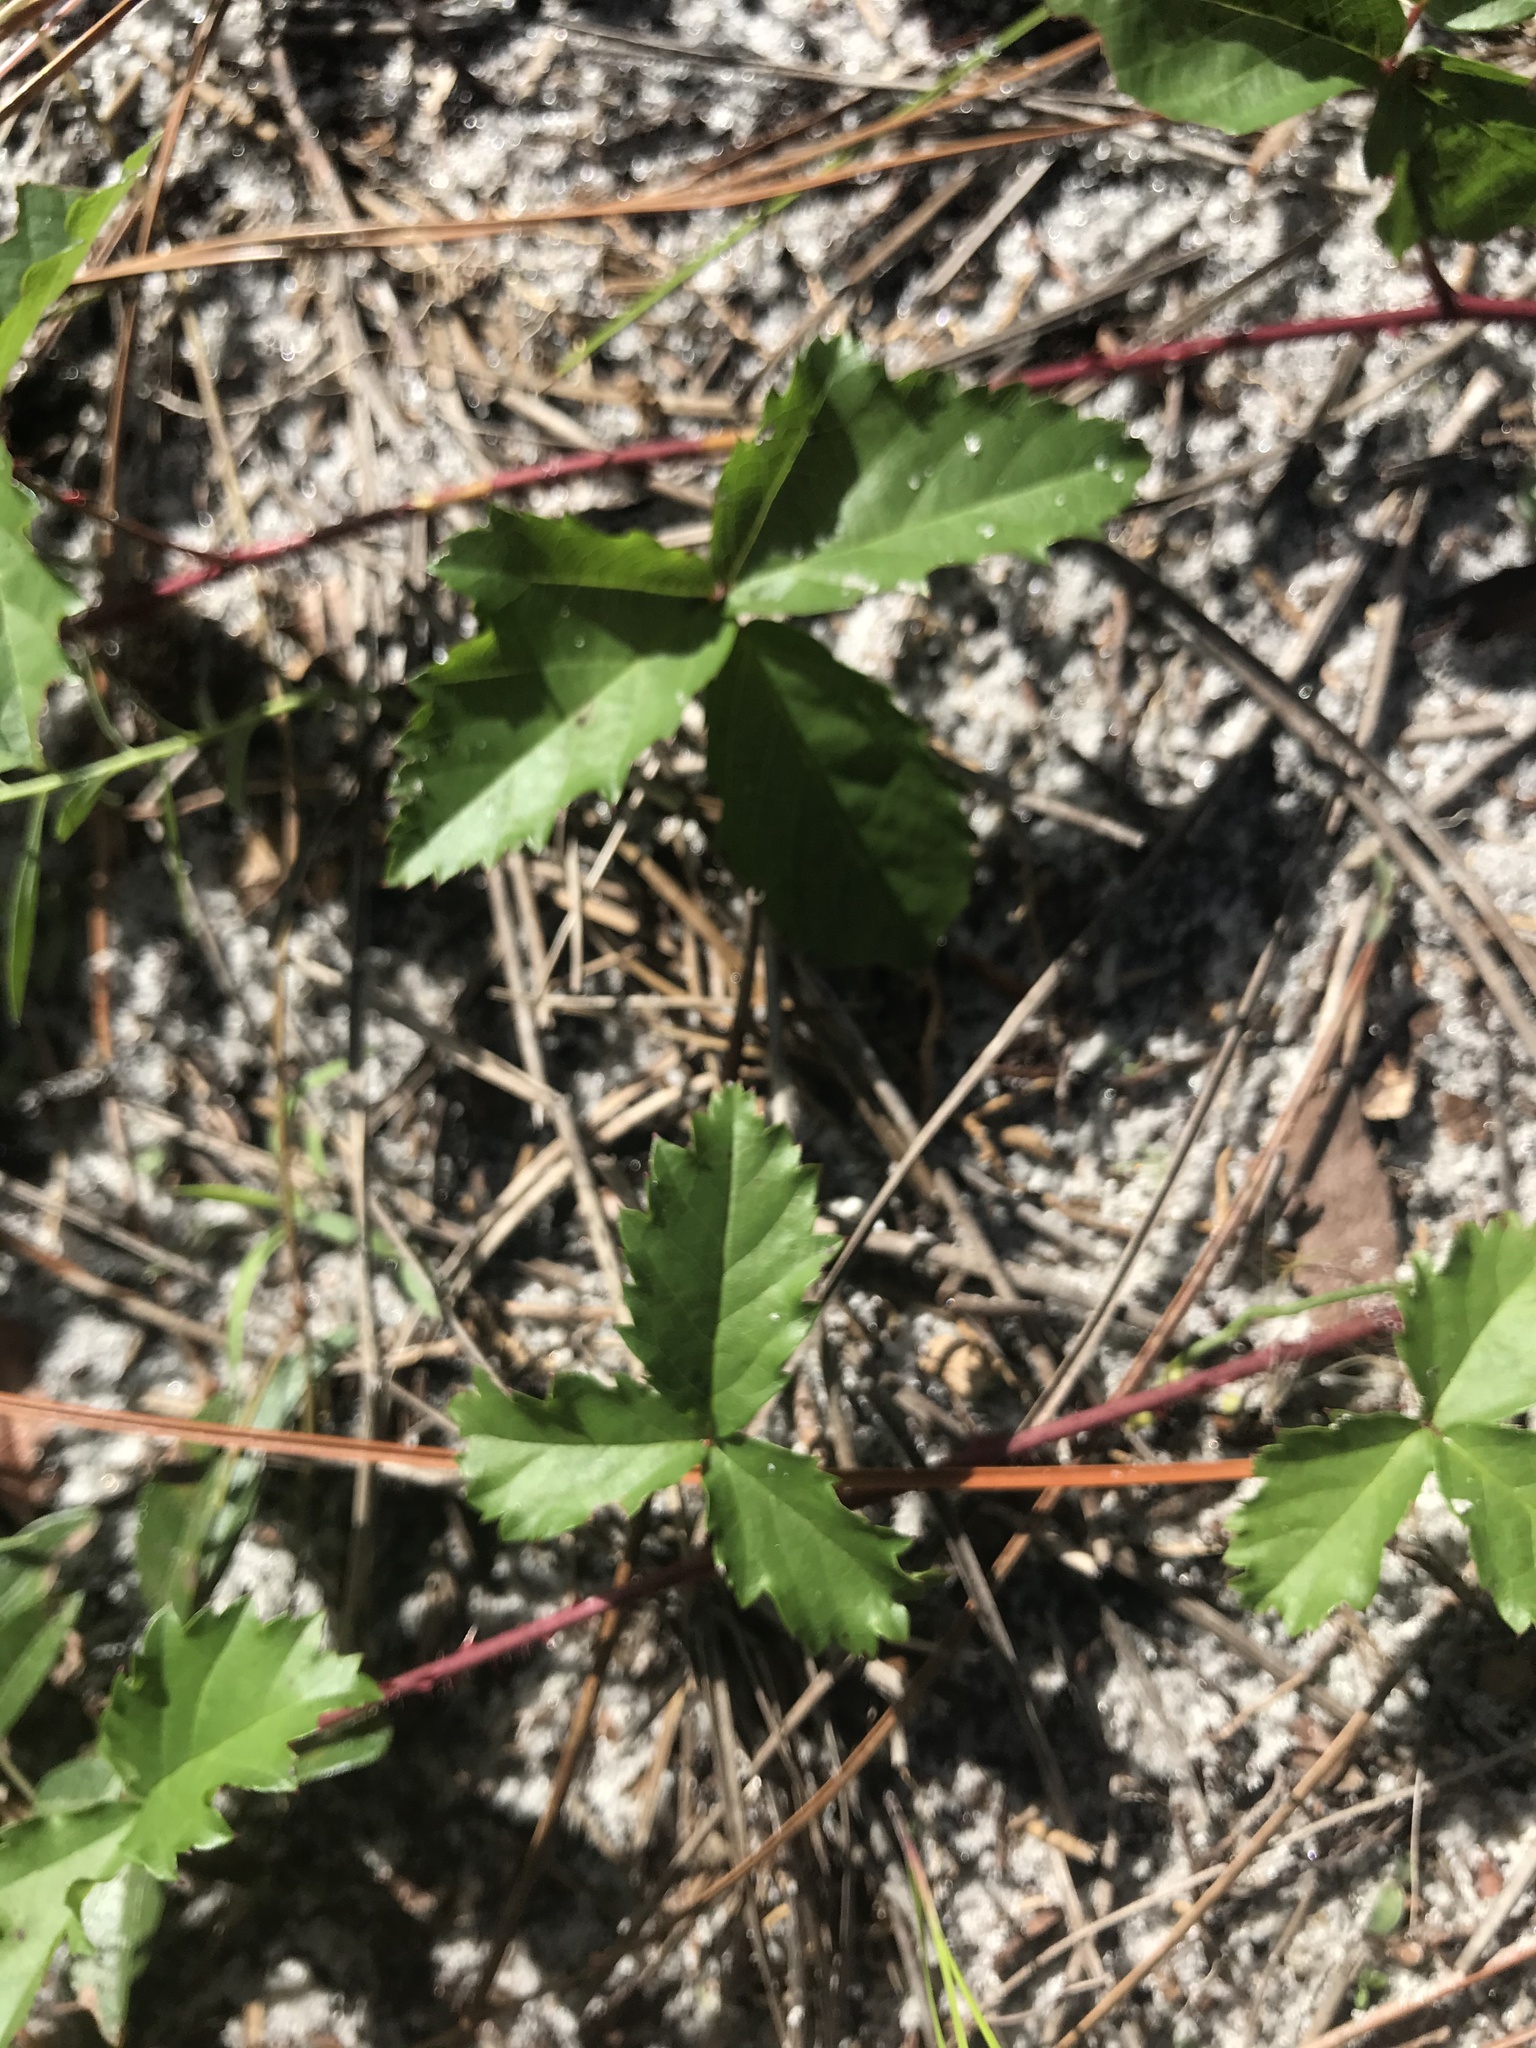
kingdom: Plantae
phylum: Tracheophyta
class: Magnoliopsida
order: Rosales
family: Rosaceae
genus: Rubus
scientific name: Rubus trivialis
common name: Southern dewberry
